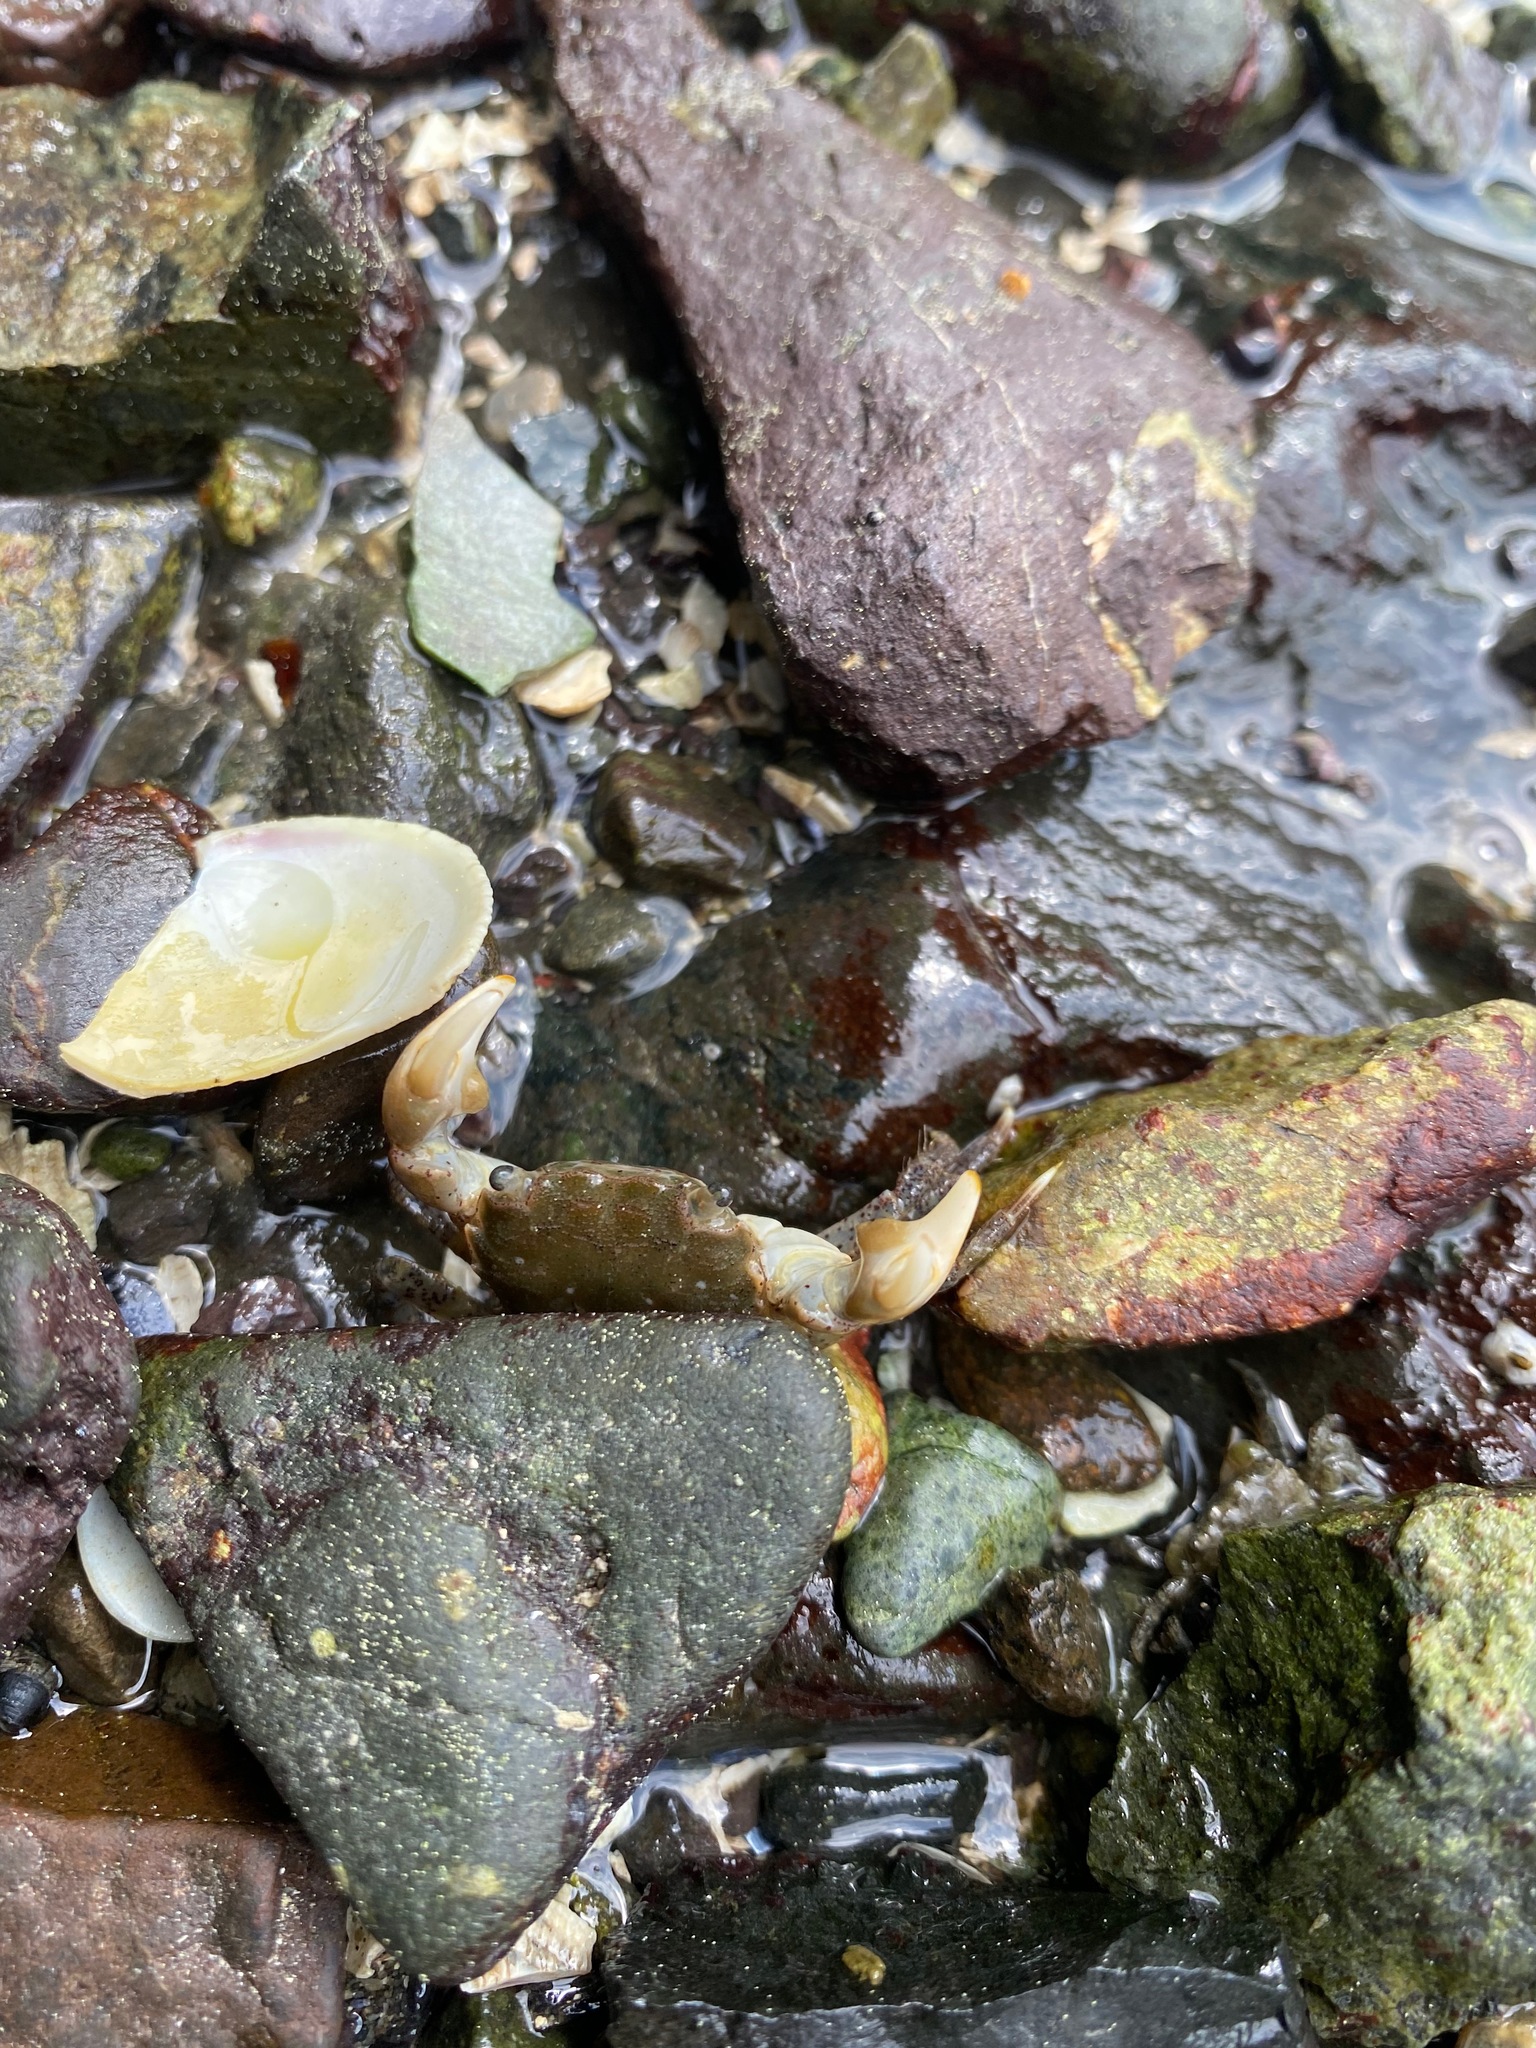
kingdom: Animalia
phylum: Arthropoda
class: Malacostraca
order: Decapoda
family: Varunidae
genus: Hemigrapsus
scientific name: Hemigrapsus oregonensis
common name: Yellow shore crab
